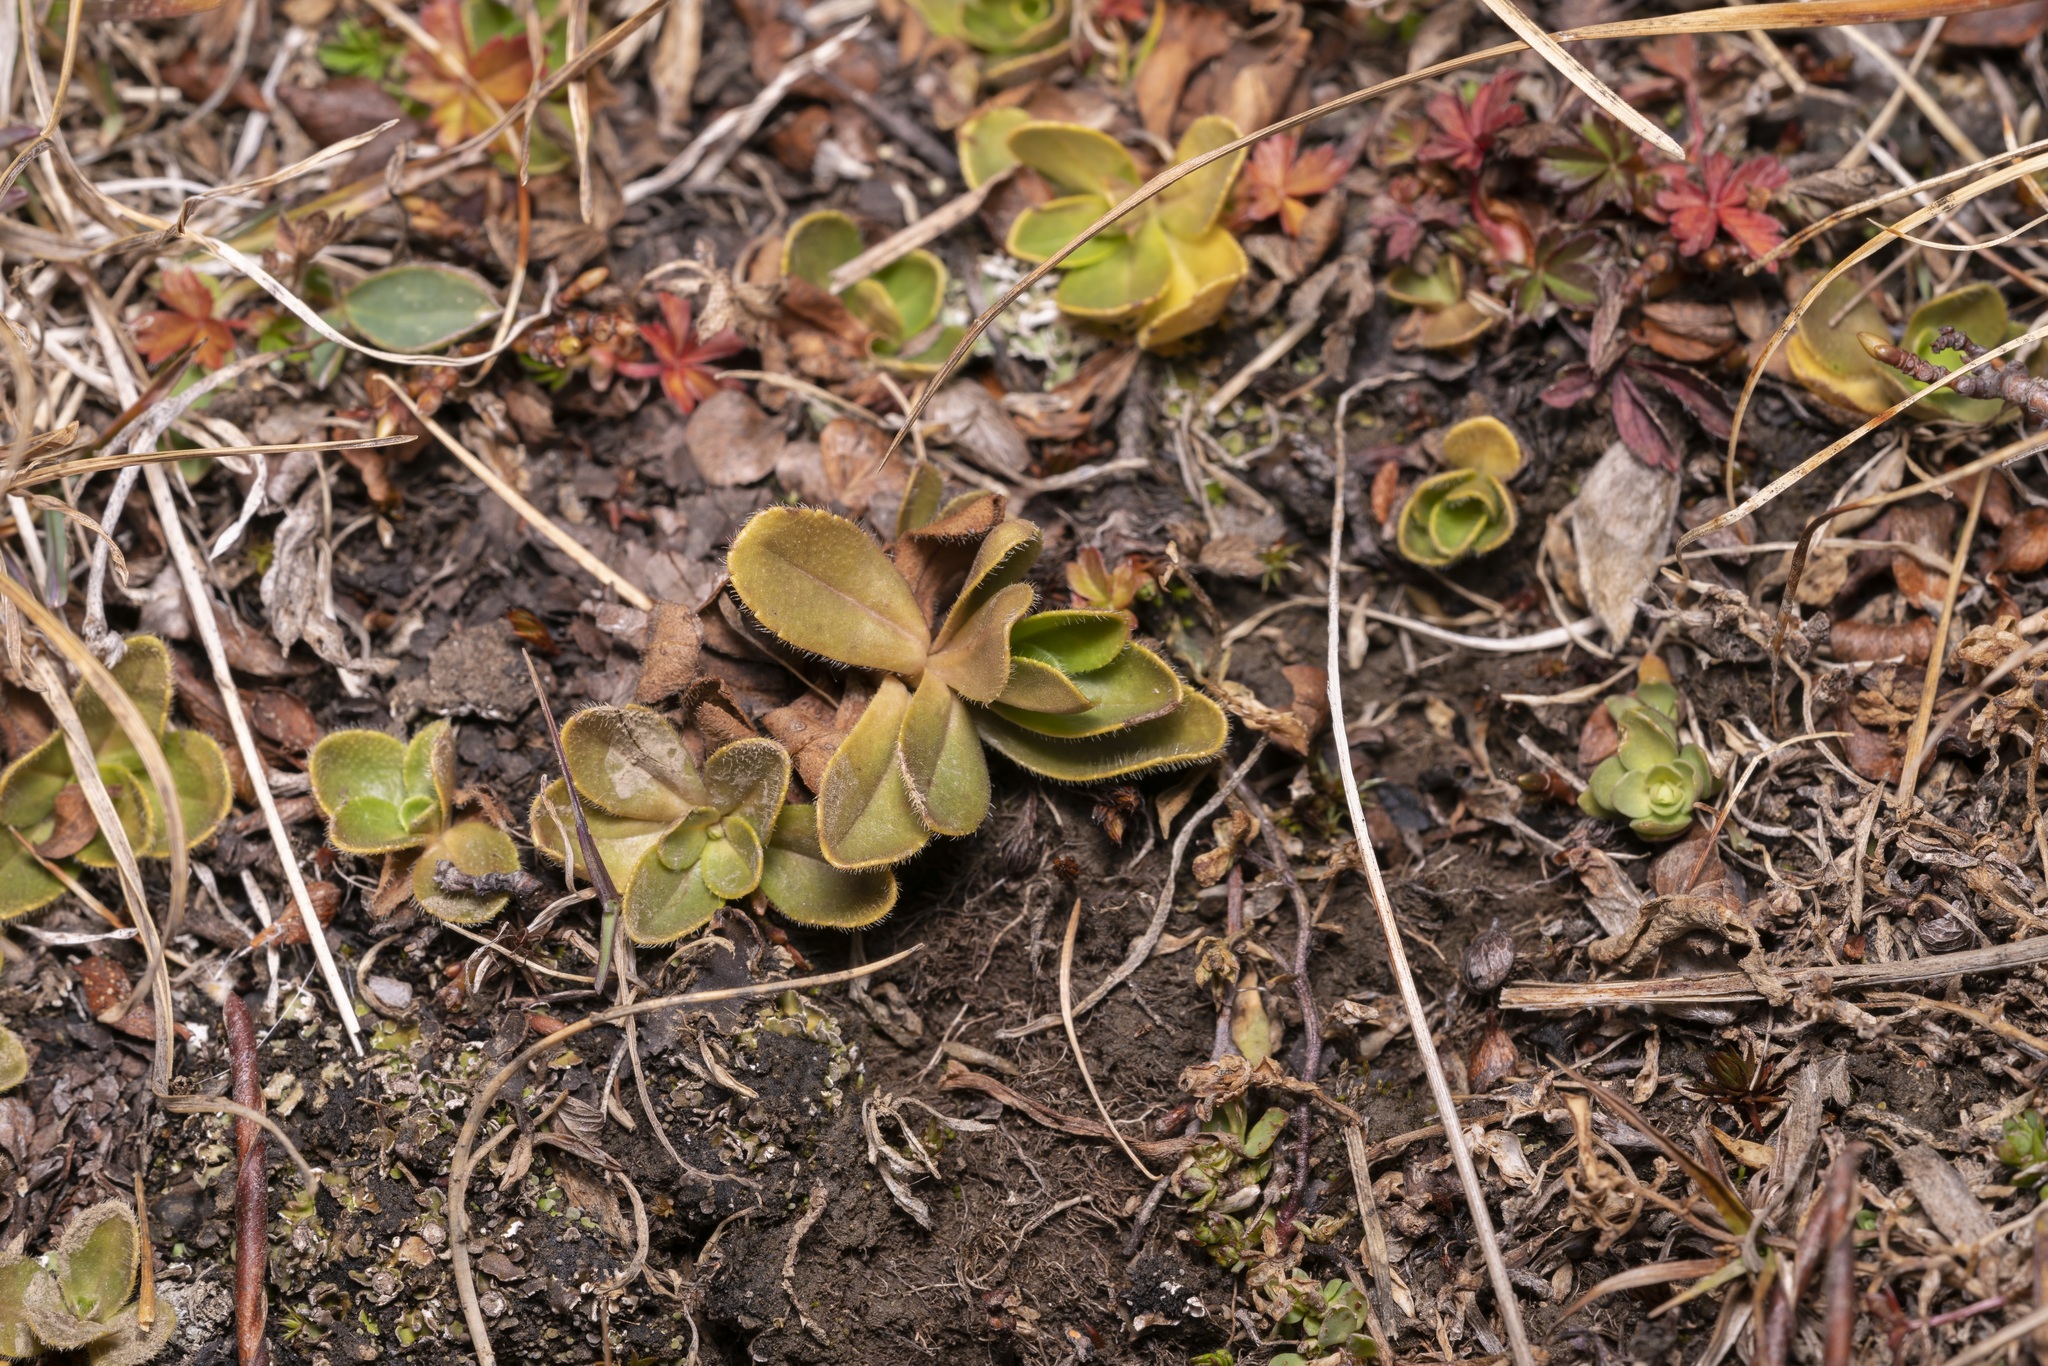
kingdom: Plantae
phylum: Tracheophyta
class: Magnoliopsida
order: Gentianales
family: Gentianaceae
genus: Gentiana
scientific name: Gentiana brachyphylla
